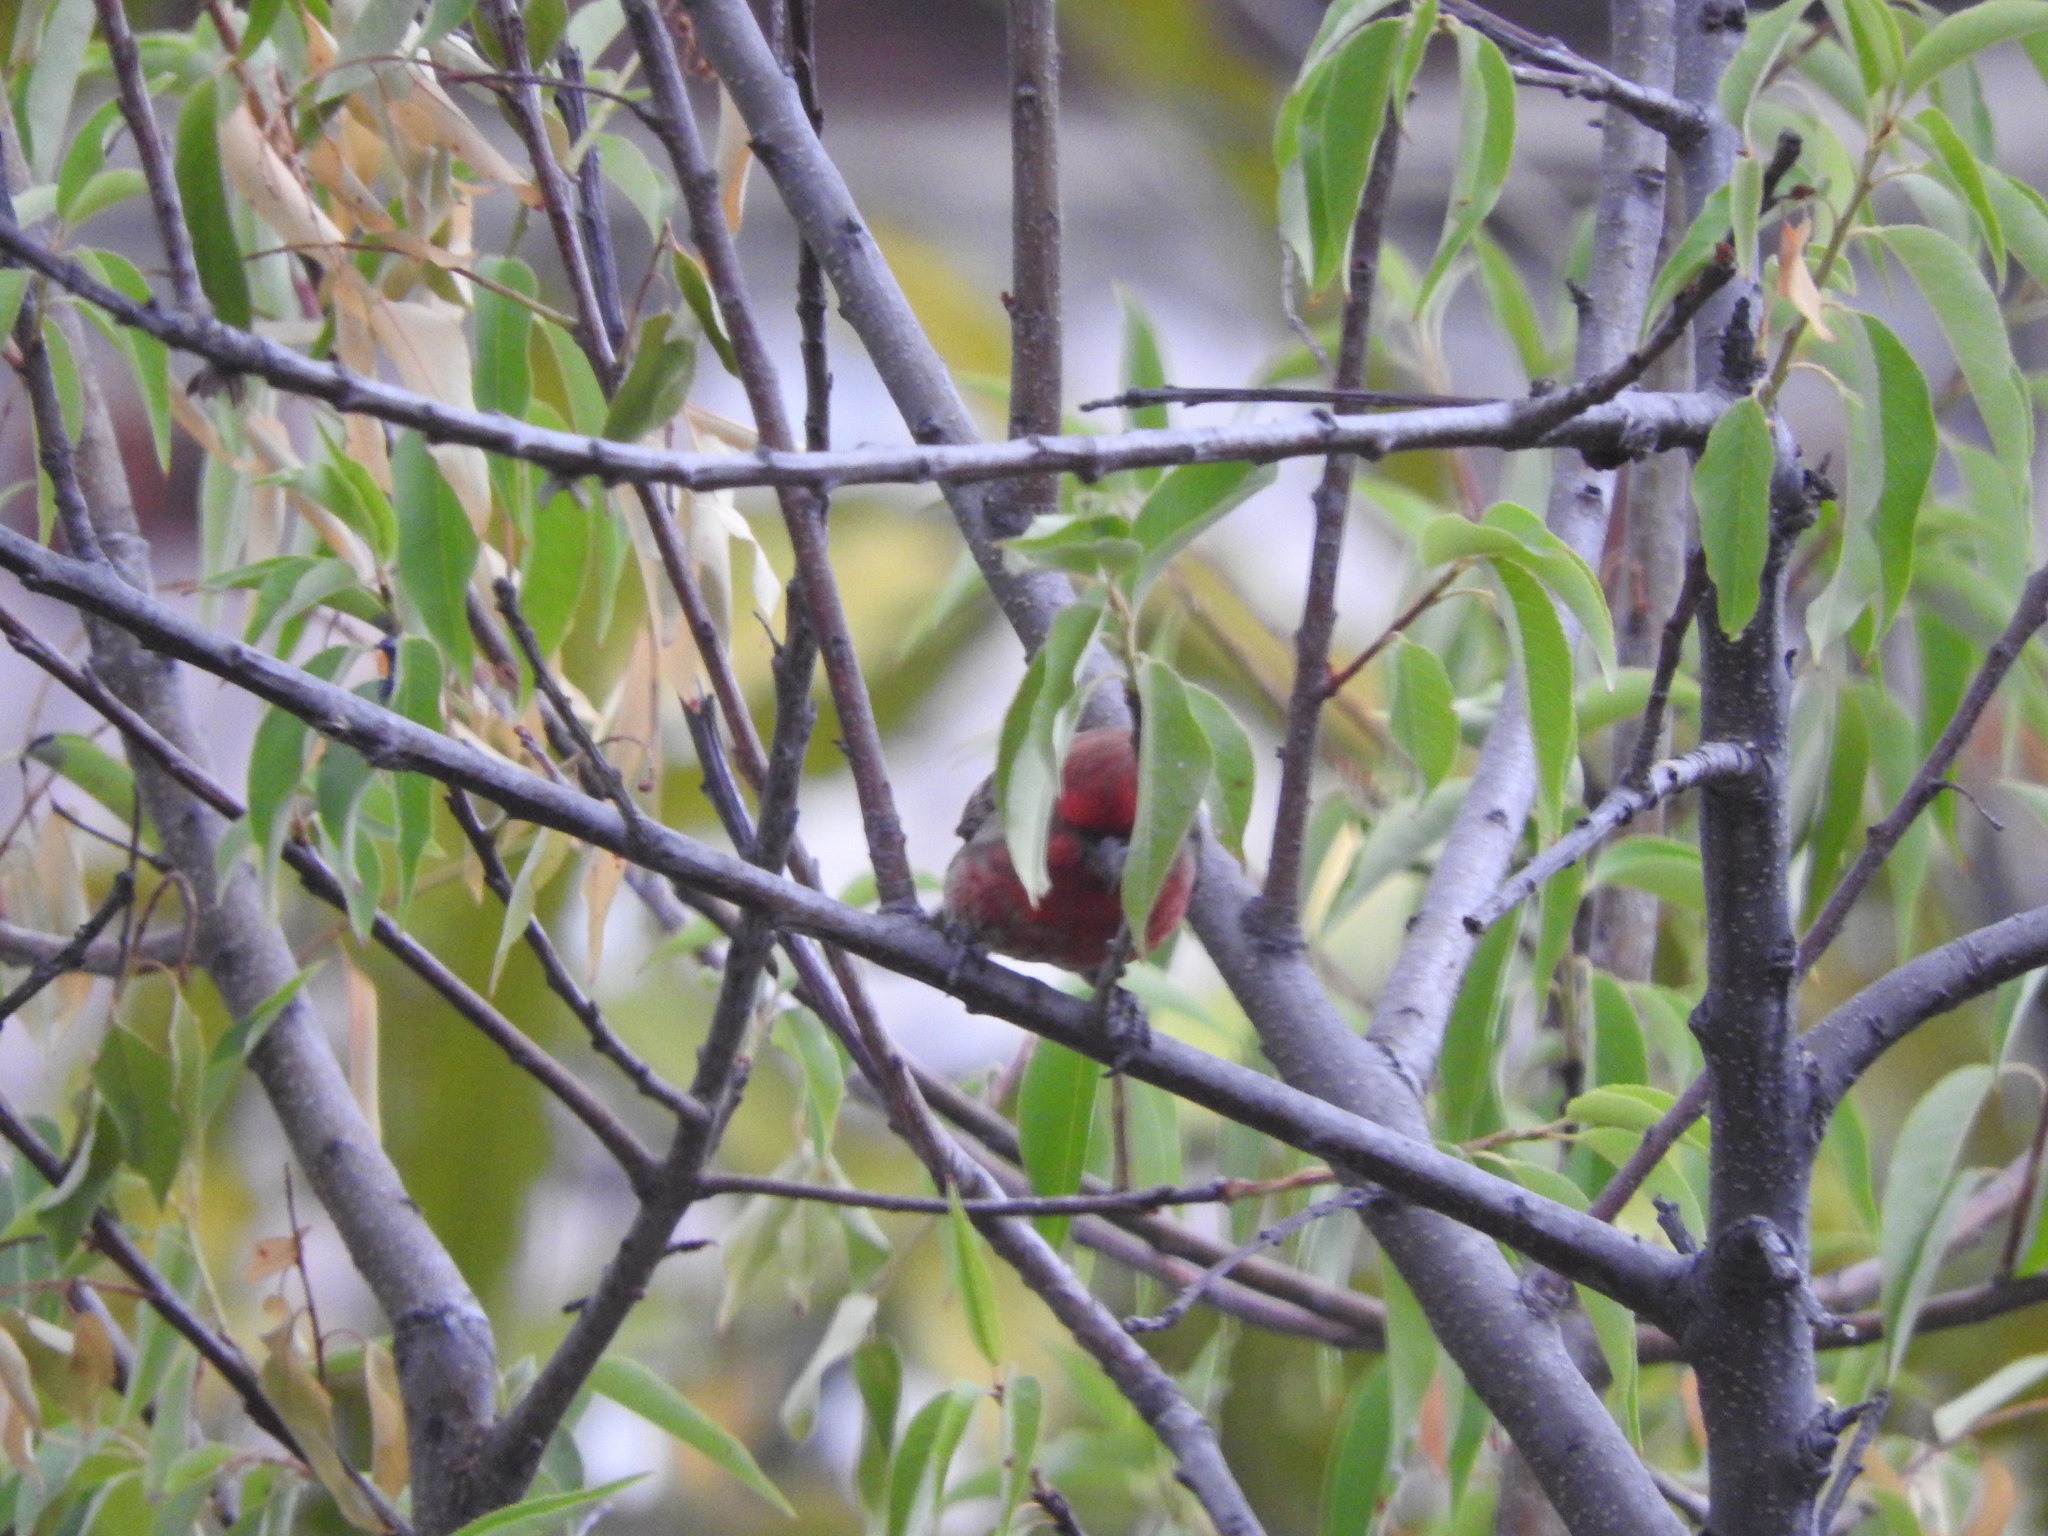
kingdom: Animalia
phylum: Chordata
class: Aves
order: Passeriformes
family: Fringillidae
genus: Haemorhous
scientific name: Haemorhous mexicanus
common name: House finch
